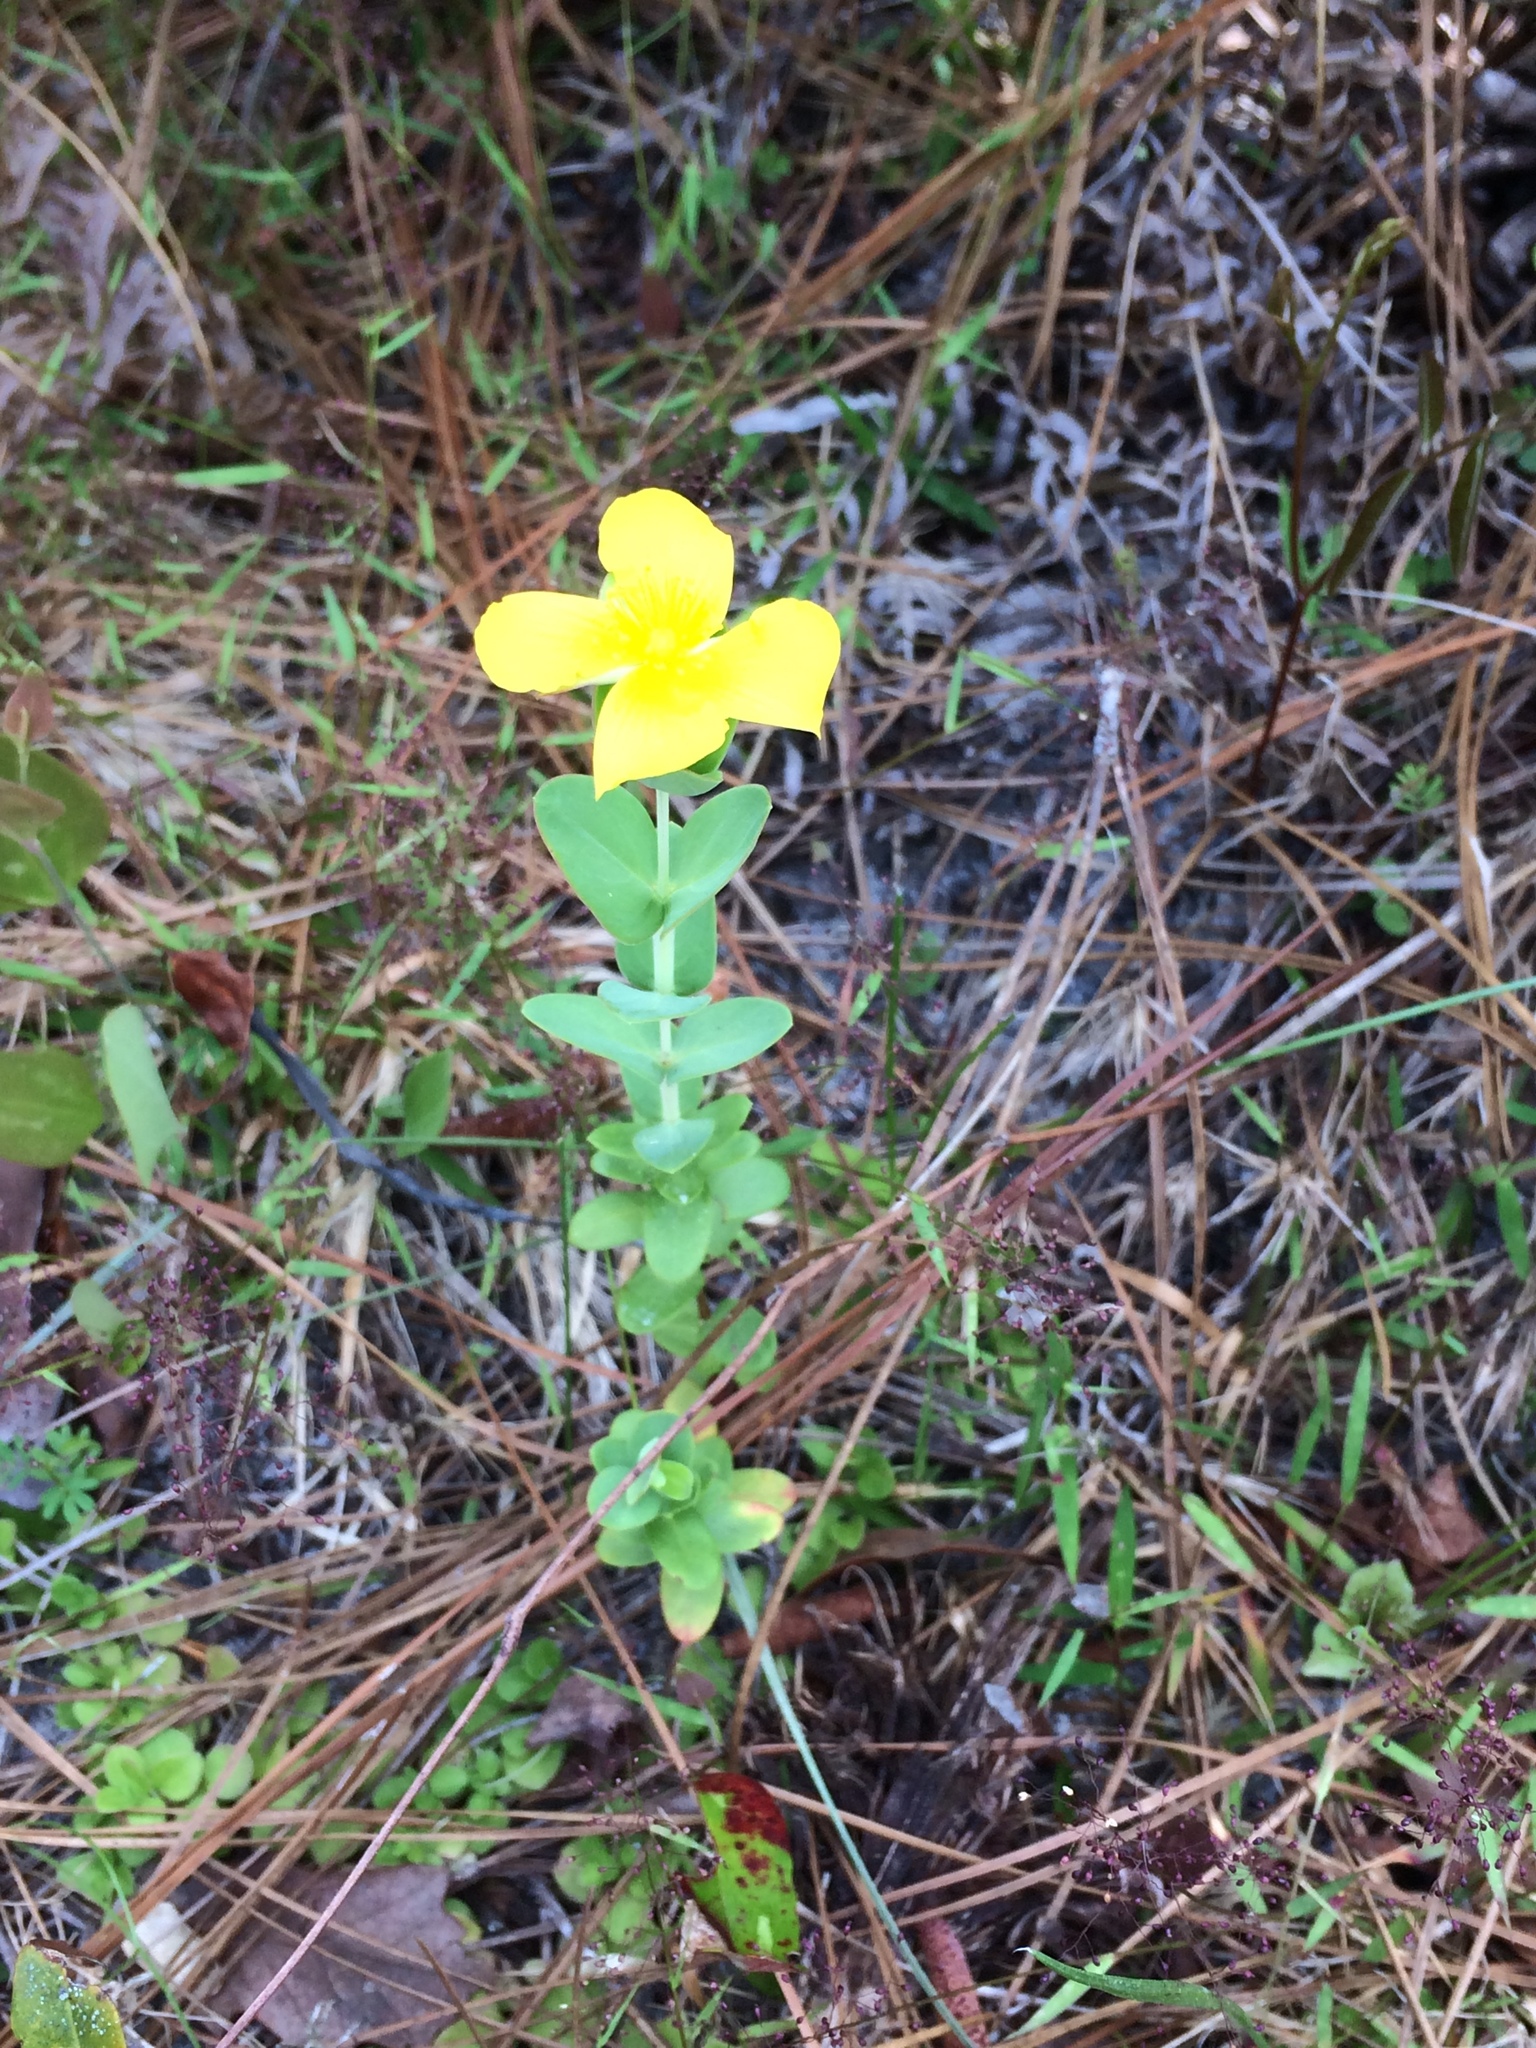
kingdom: Plantae
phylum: Tracheophyta
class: Magnoliopsida
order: Malpighiales
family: Hypericaceae
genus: Hypericum
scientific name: Hypericum tetrapetalum
